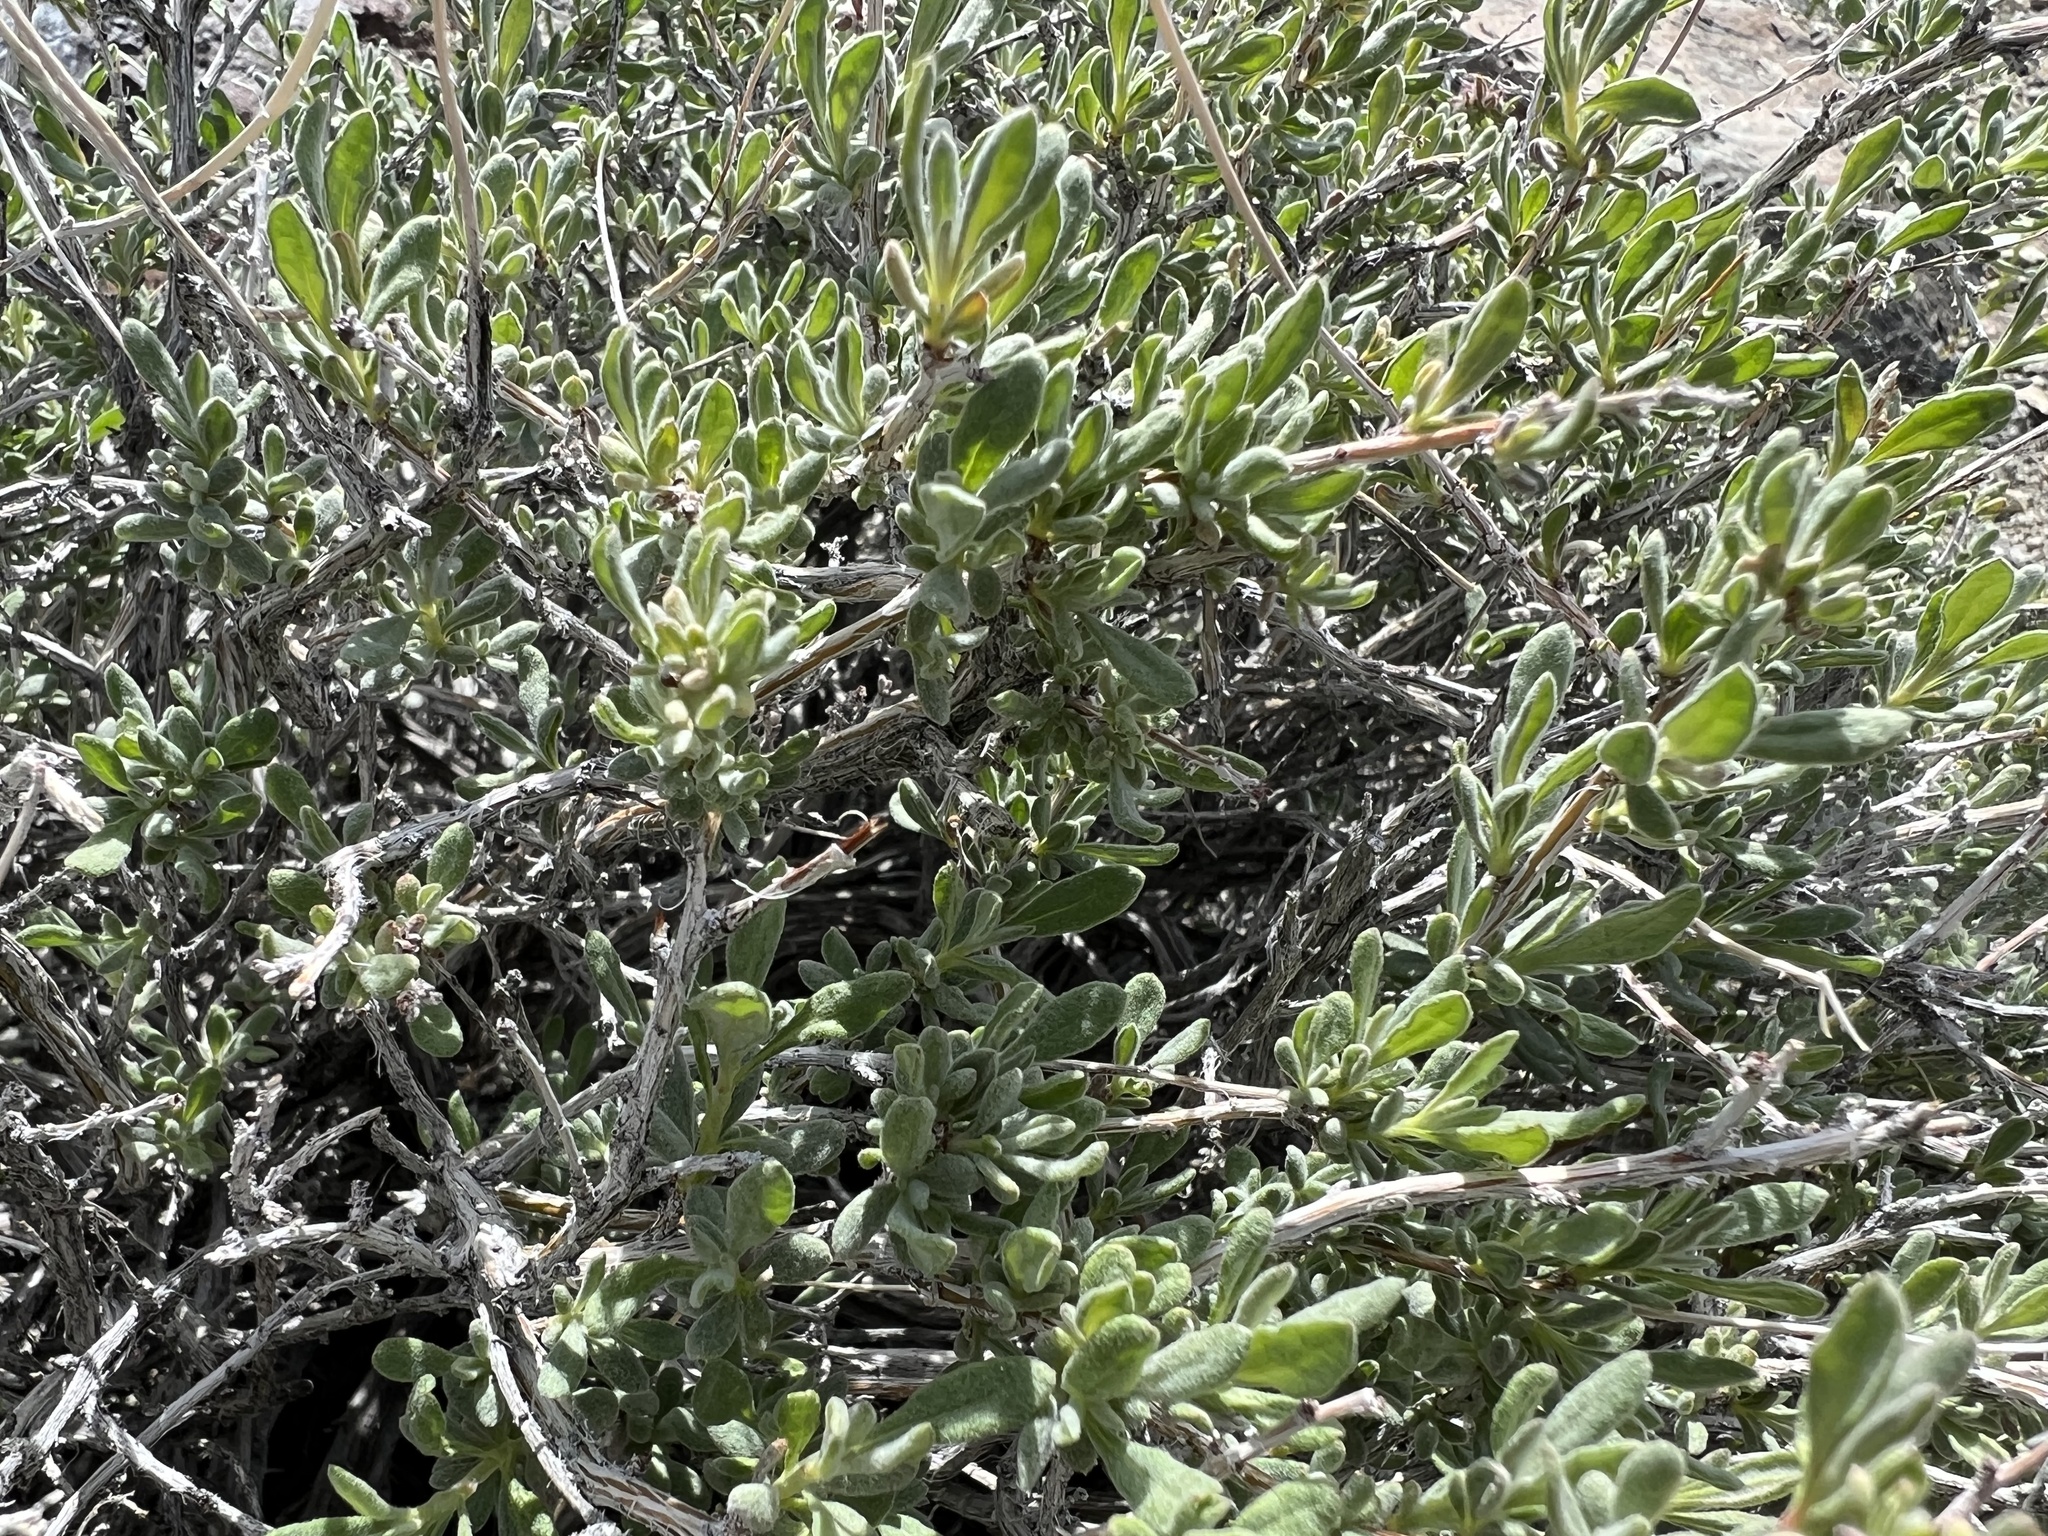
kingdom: Plantae
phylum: Tracheophyta
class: Magnoliopsida
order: Caryophyllales
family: Polygonaceae
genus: Eriogonum
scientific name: Eriogonum fasciculatum
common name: California wild buckwheat
